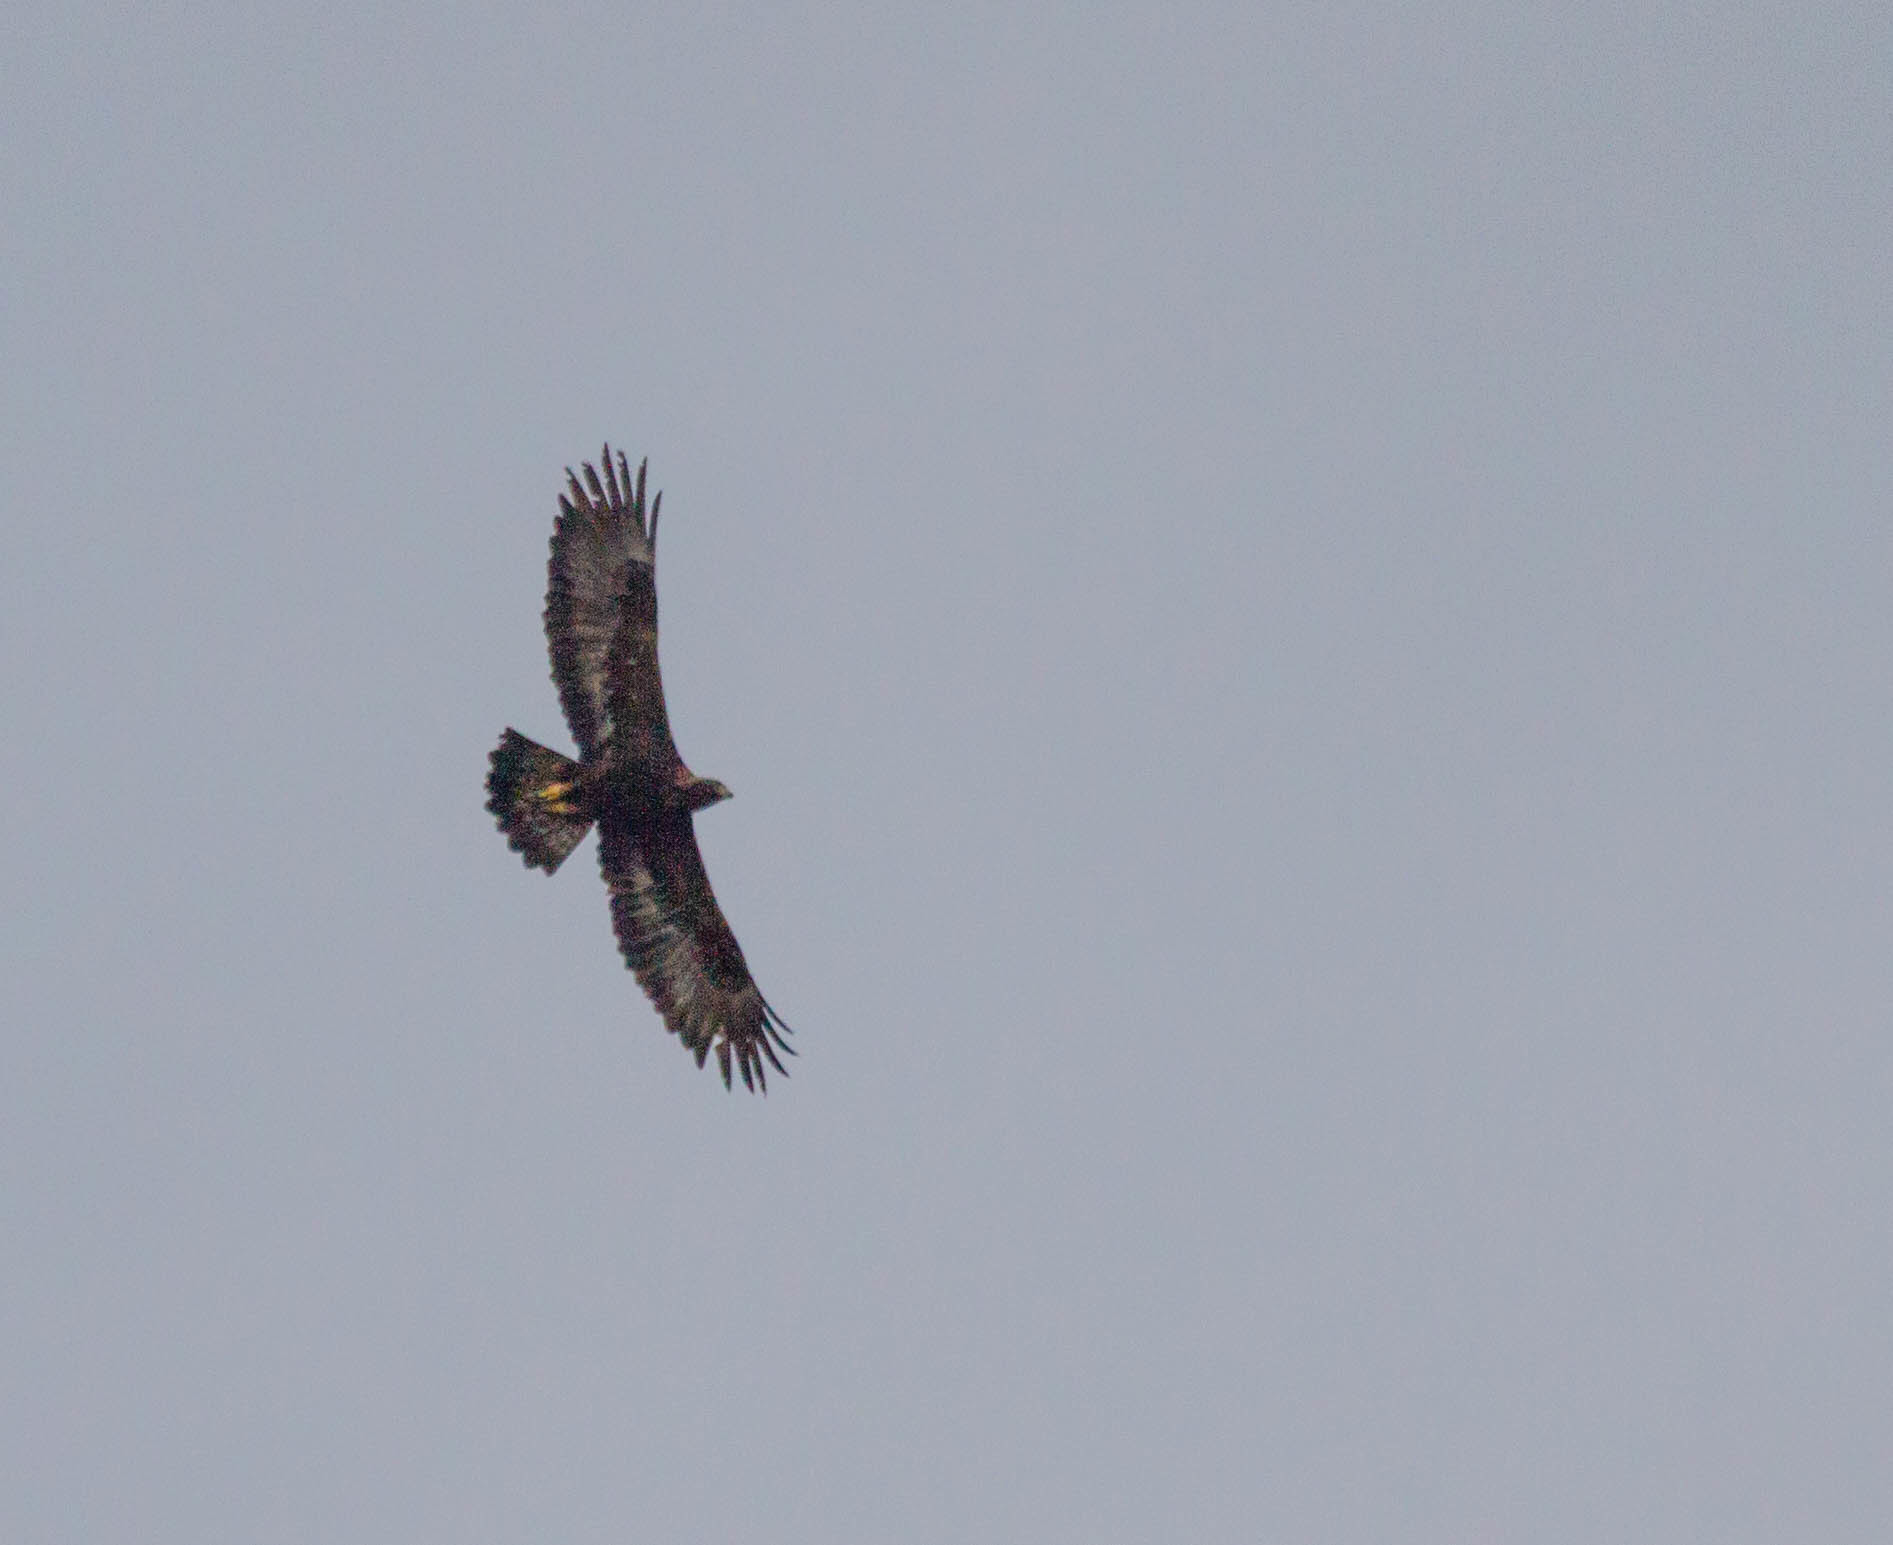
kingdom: Animalia
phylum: Chordata
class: Aves
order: Accipitriformes
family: Accipitridae
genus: Aquila
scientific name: Aquila chrysaetos
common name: Golden eagle
